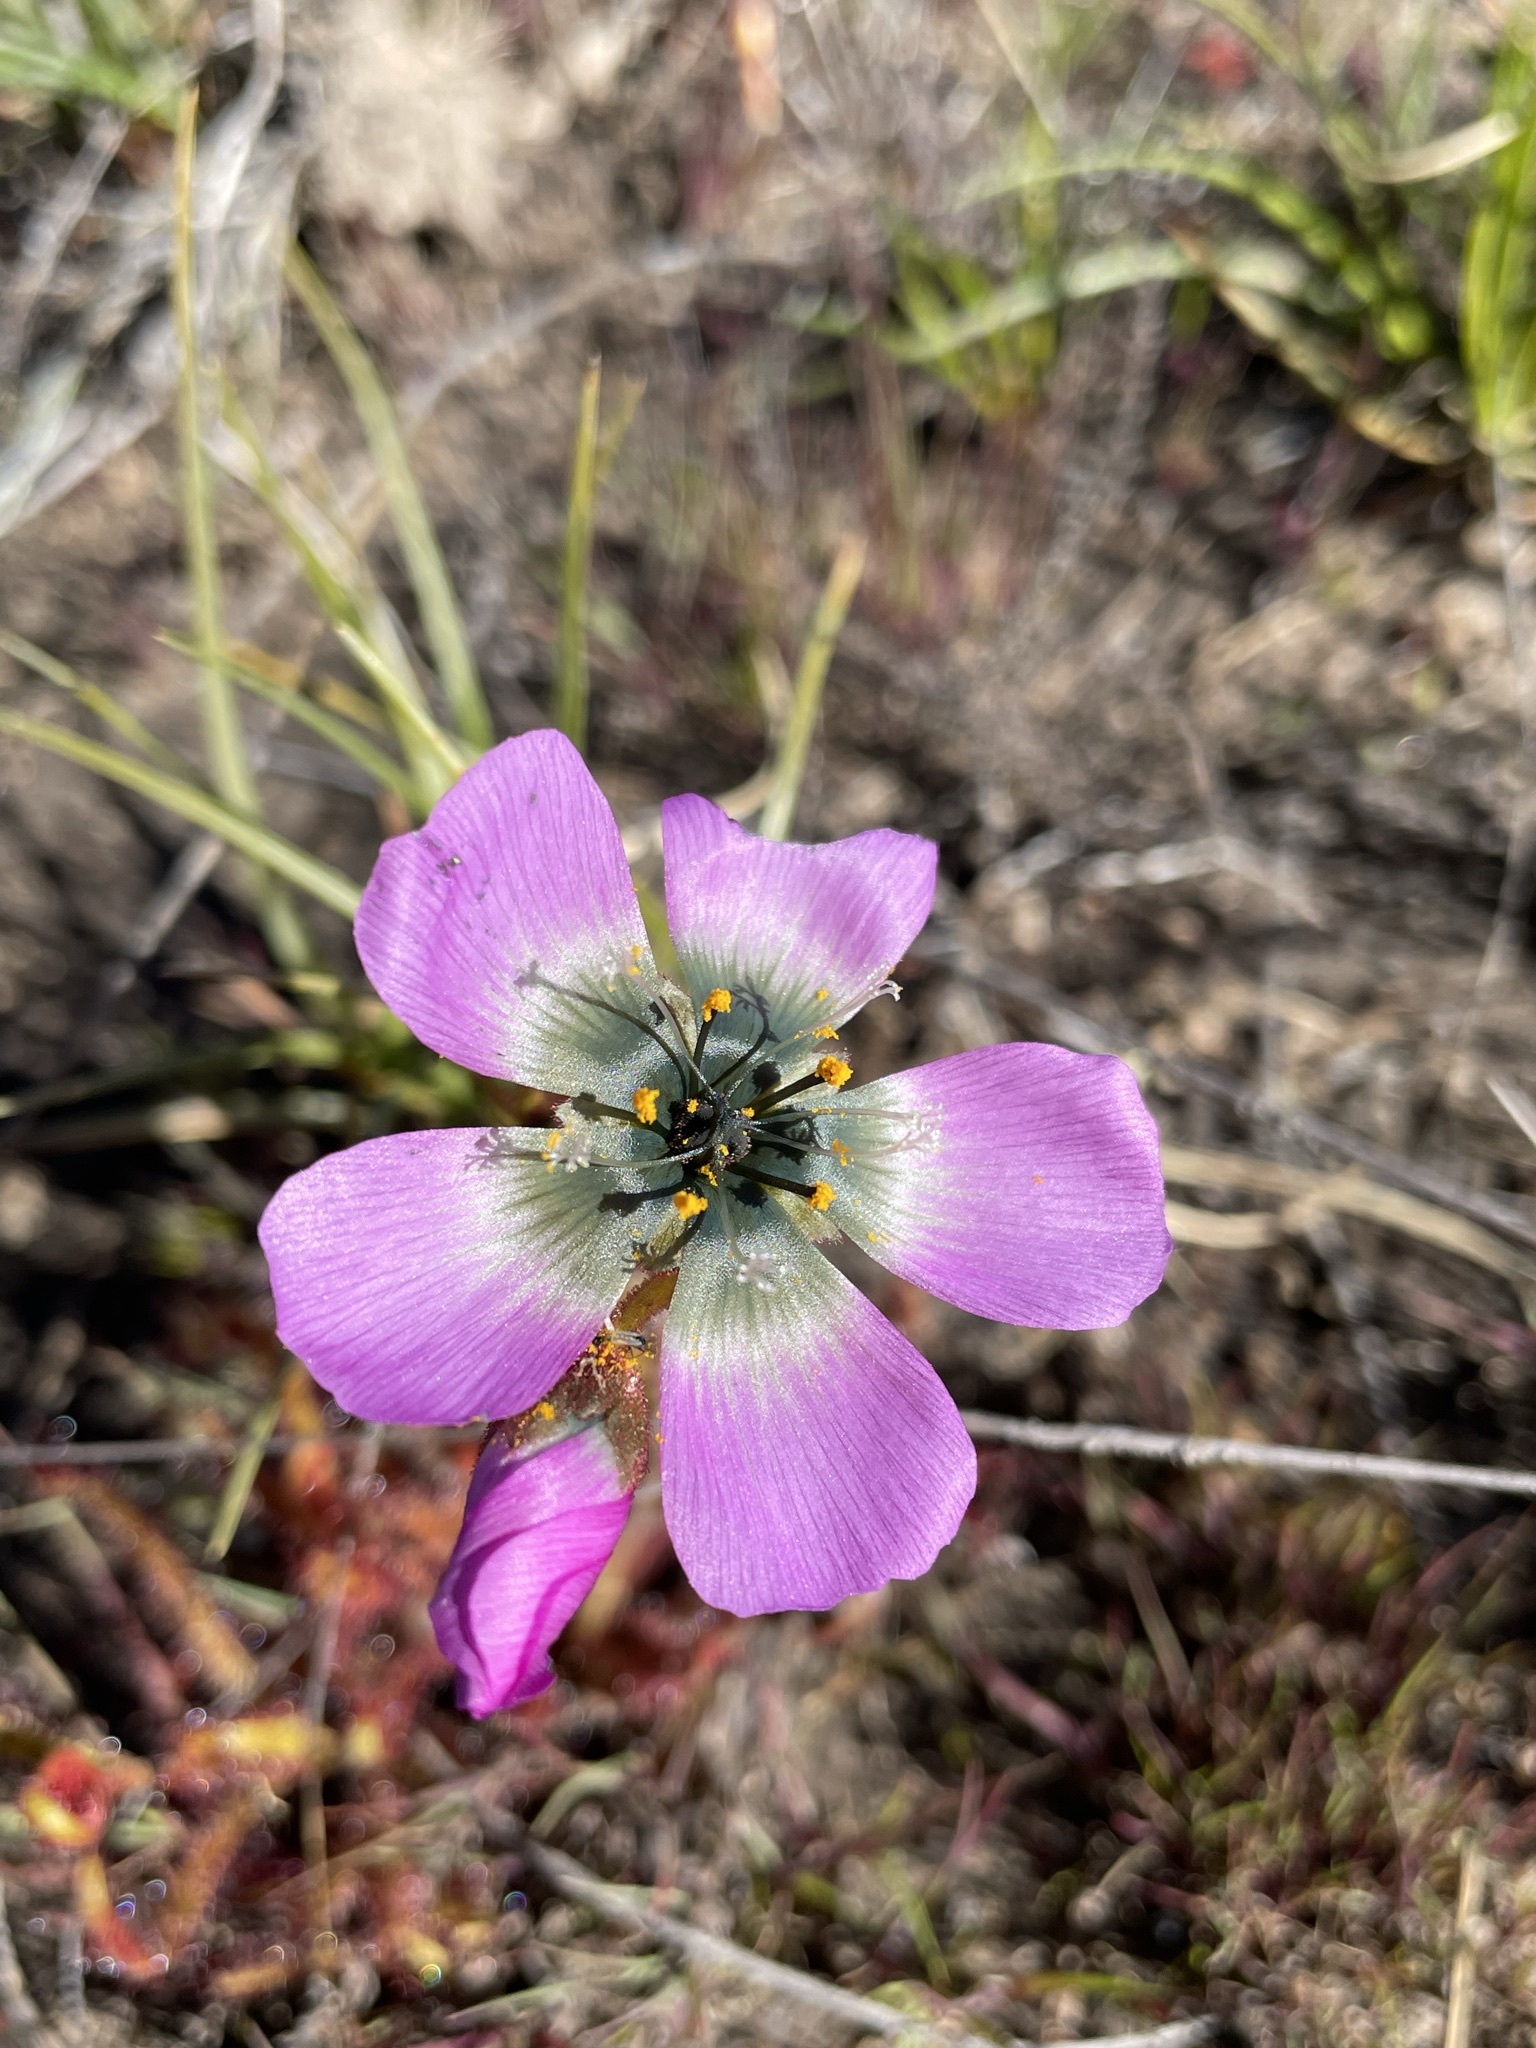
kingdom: Plantae
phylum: Tracheophyta
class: Magnoliopsida
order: Caryophyllales
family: Droseraceae
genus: Drosera
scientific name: Drosera cistiflora
